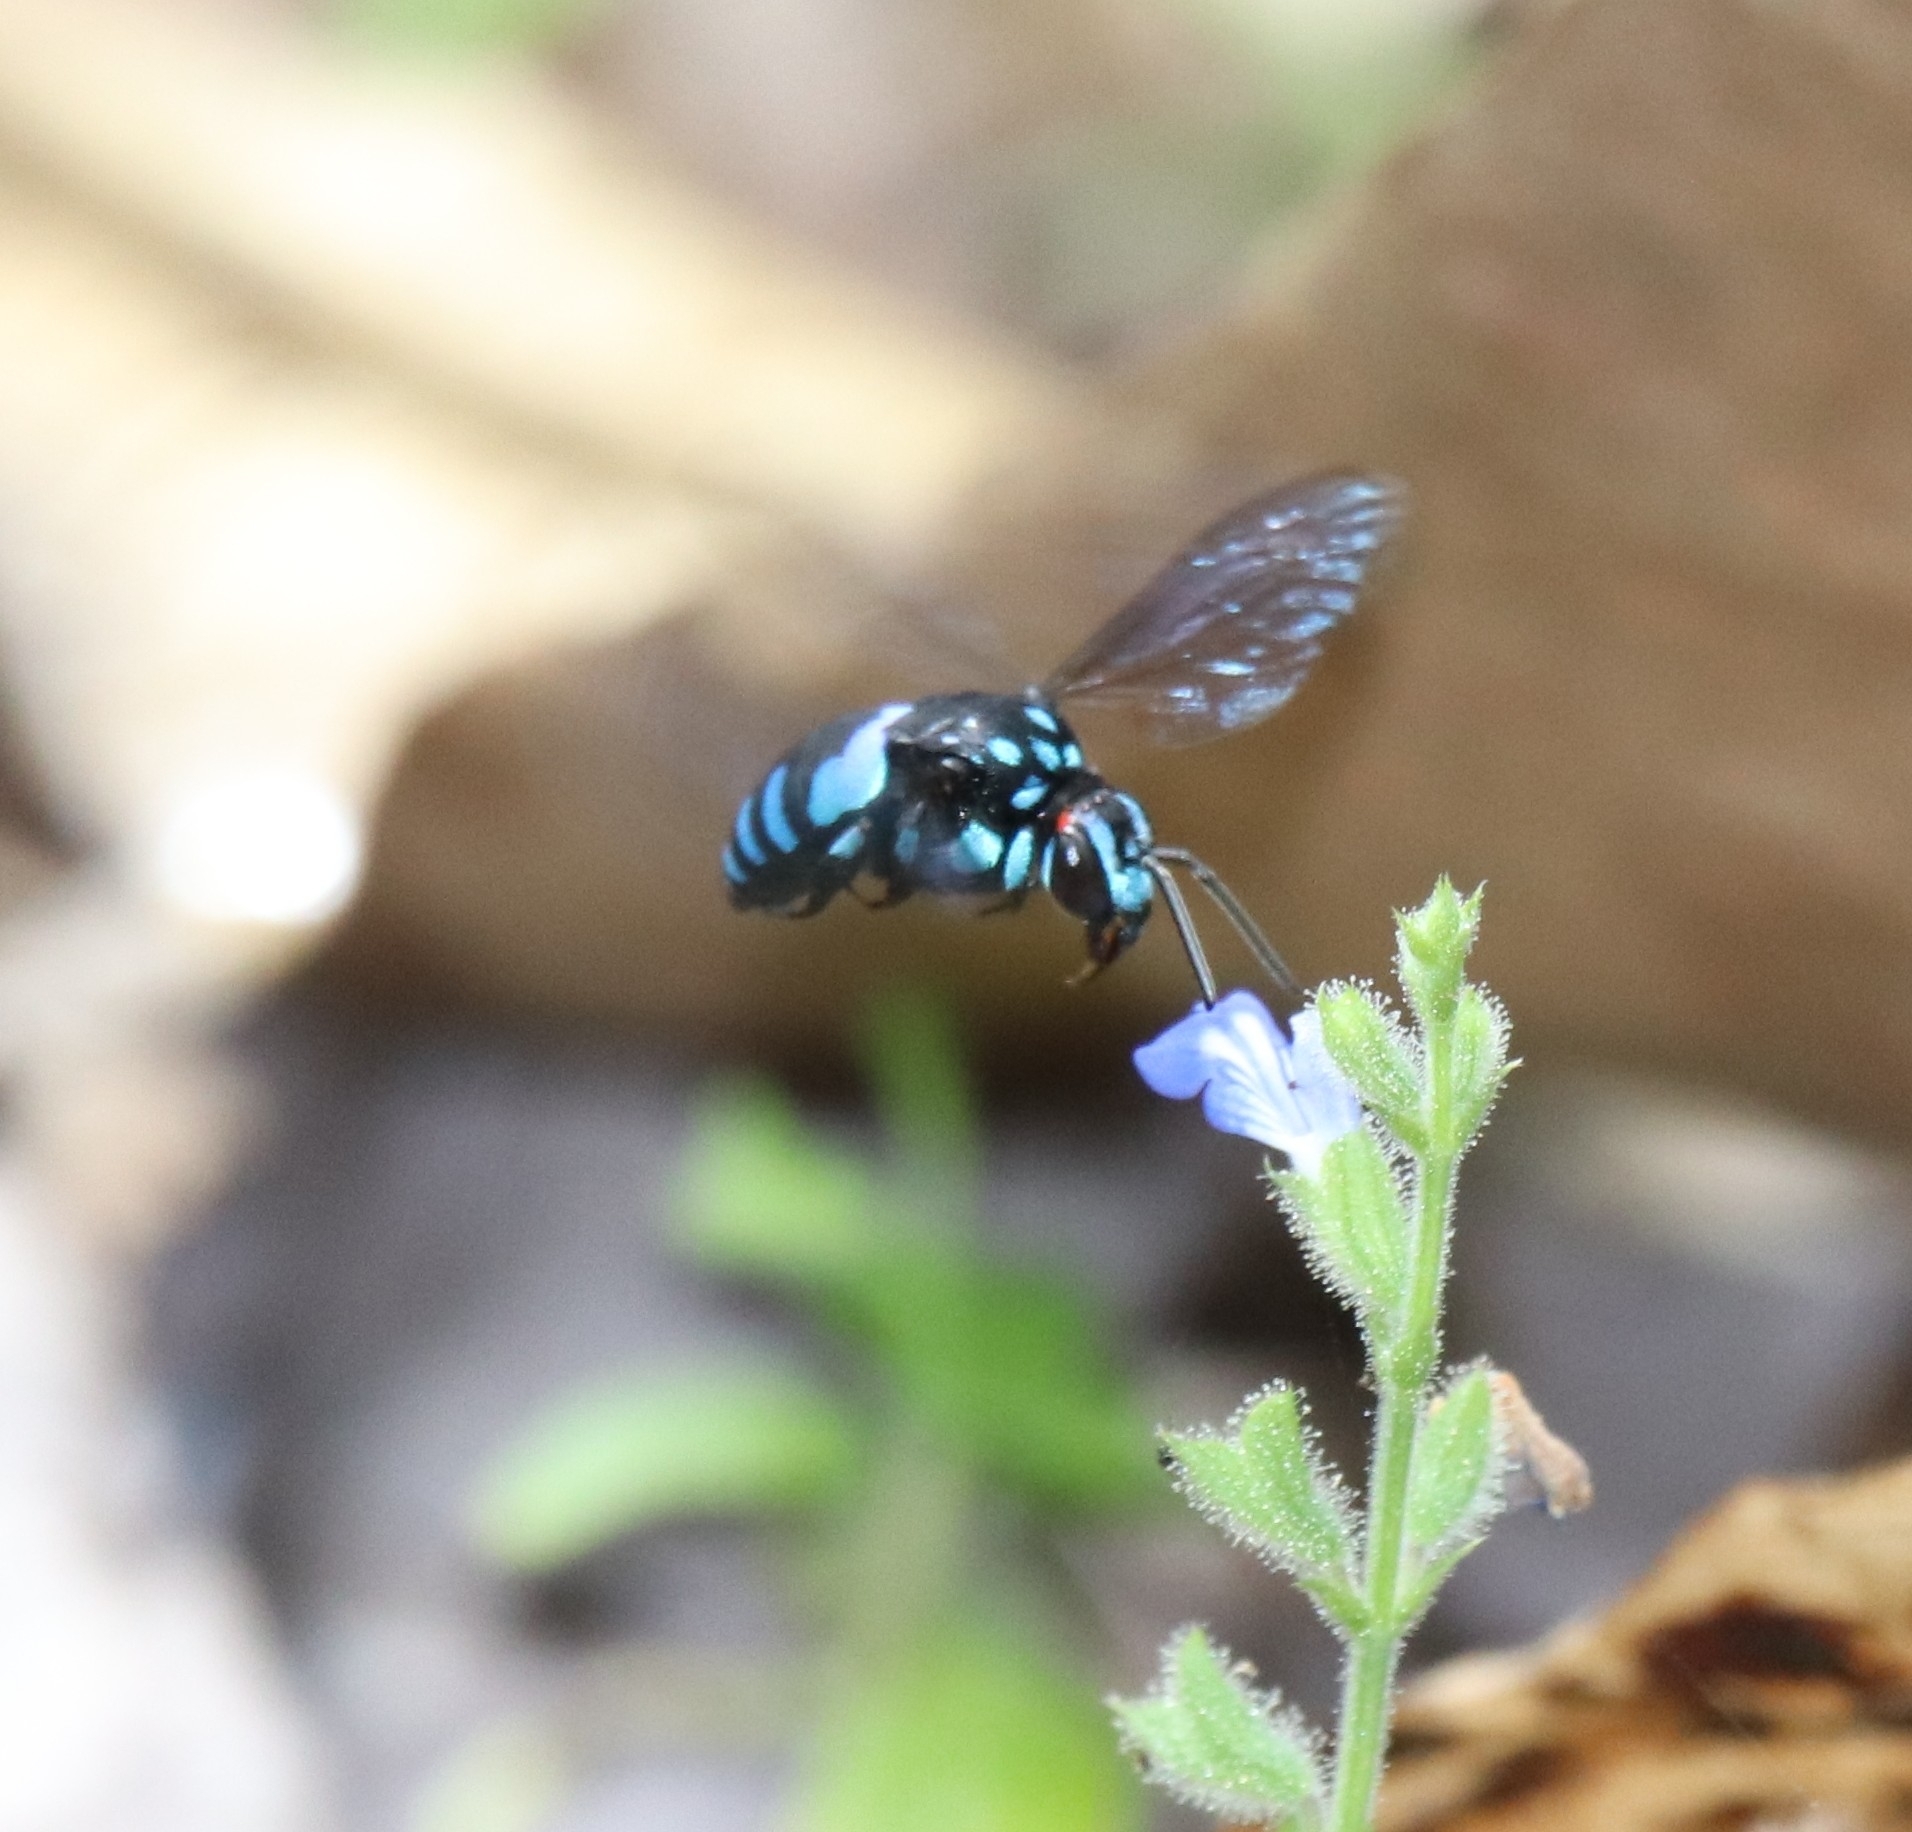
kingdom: Animalia
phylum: Arthropoda
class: Insecta
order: Hymenoptera
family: Apidae
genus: Thyreus
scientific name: Thyreus nitidulus
